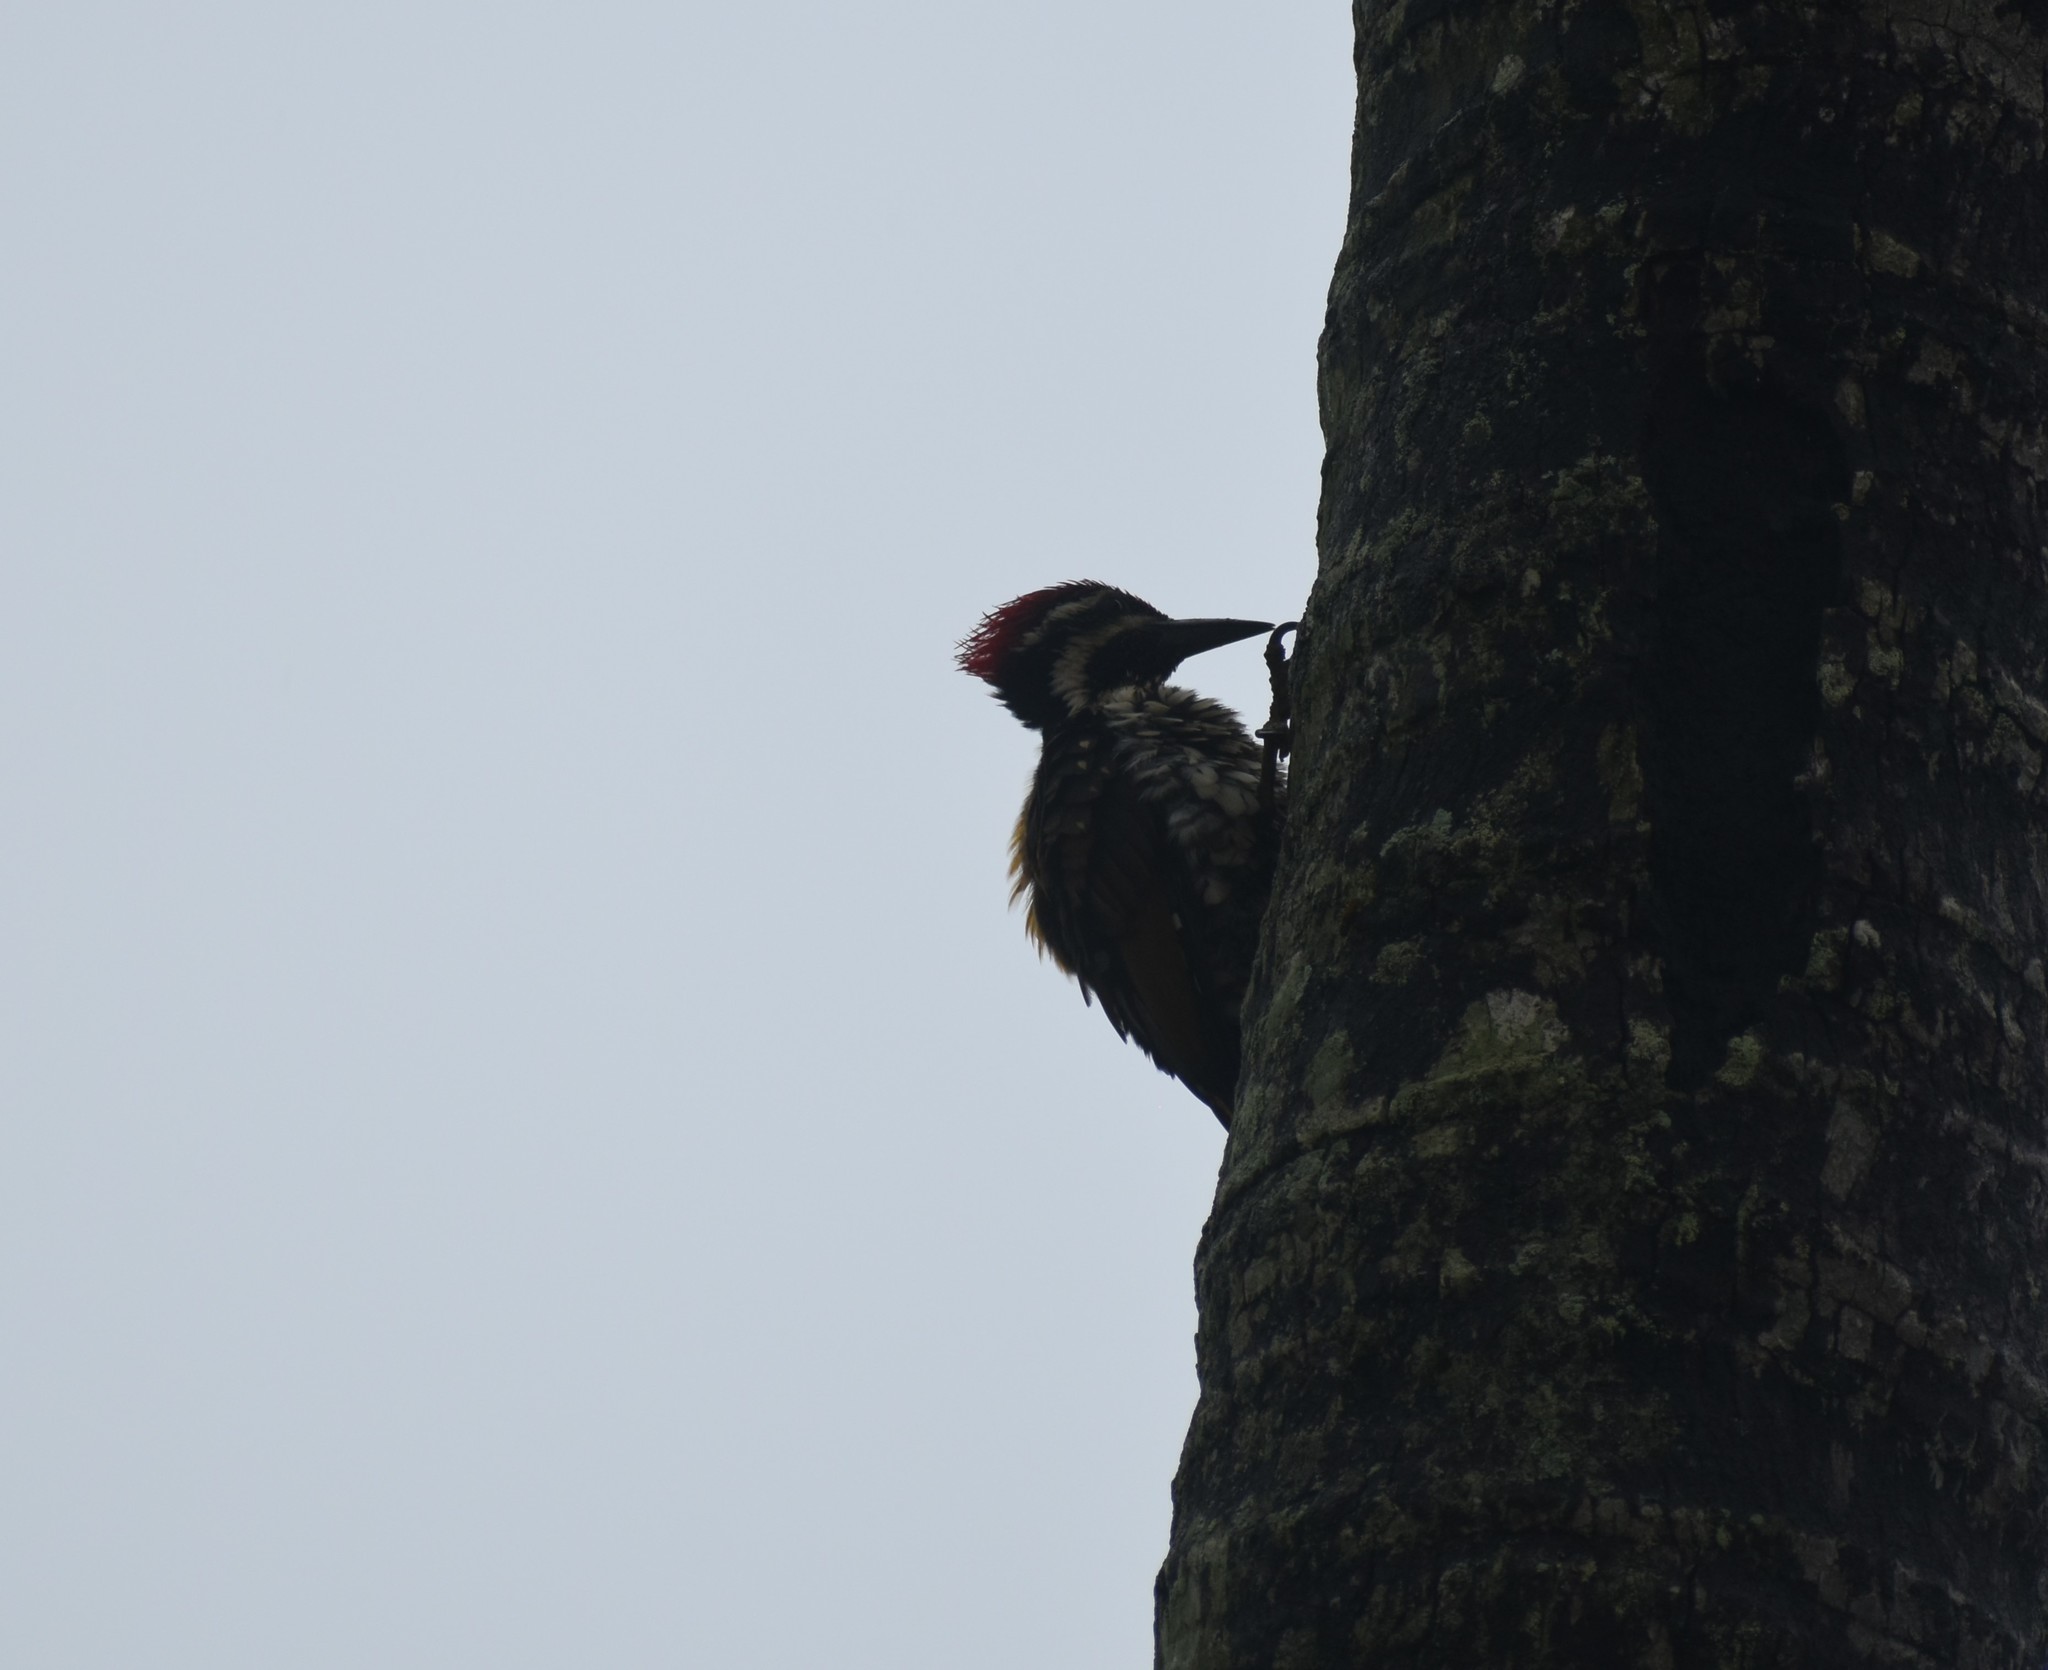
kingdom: Animalia
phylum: Chordata
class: Aves
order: Piciformes
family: Picidae
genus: Dinopium
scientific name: Dinopium benghalense
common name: Black-rumped flameback
